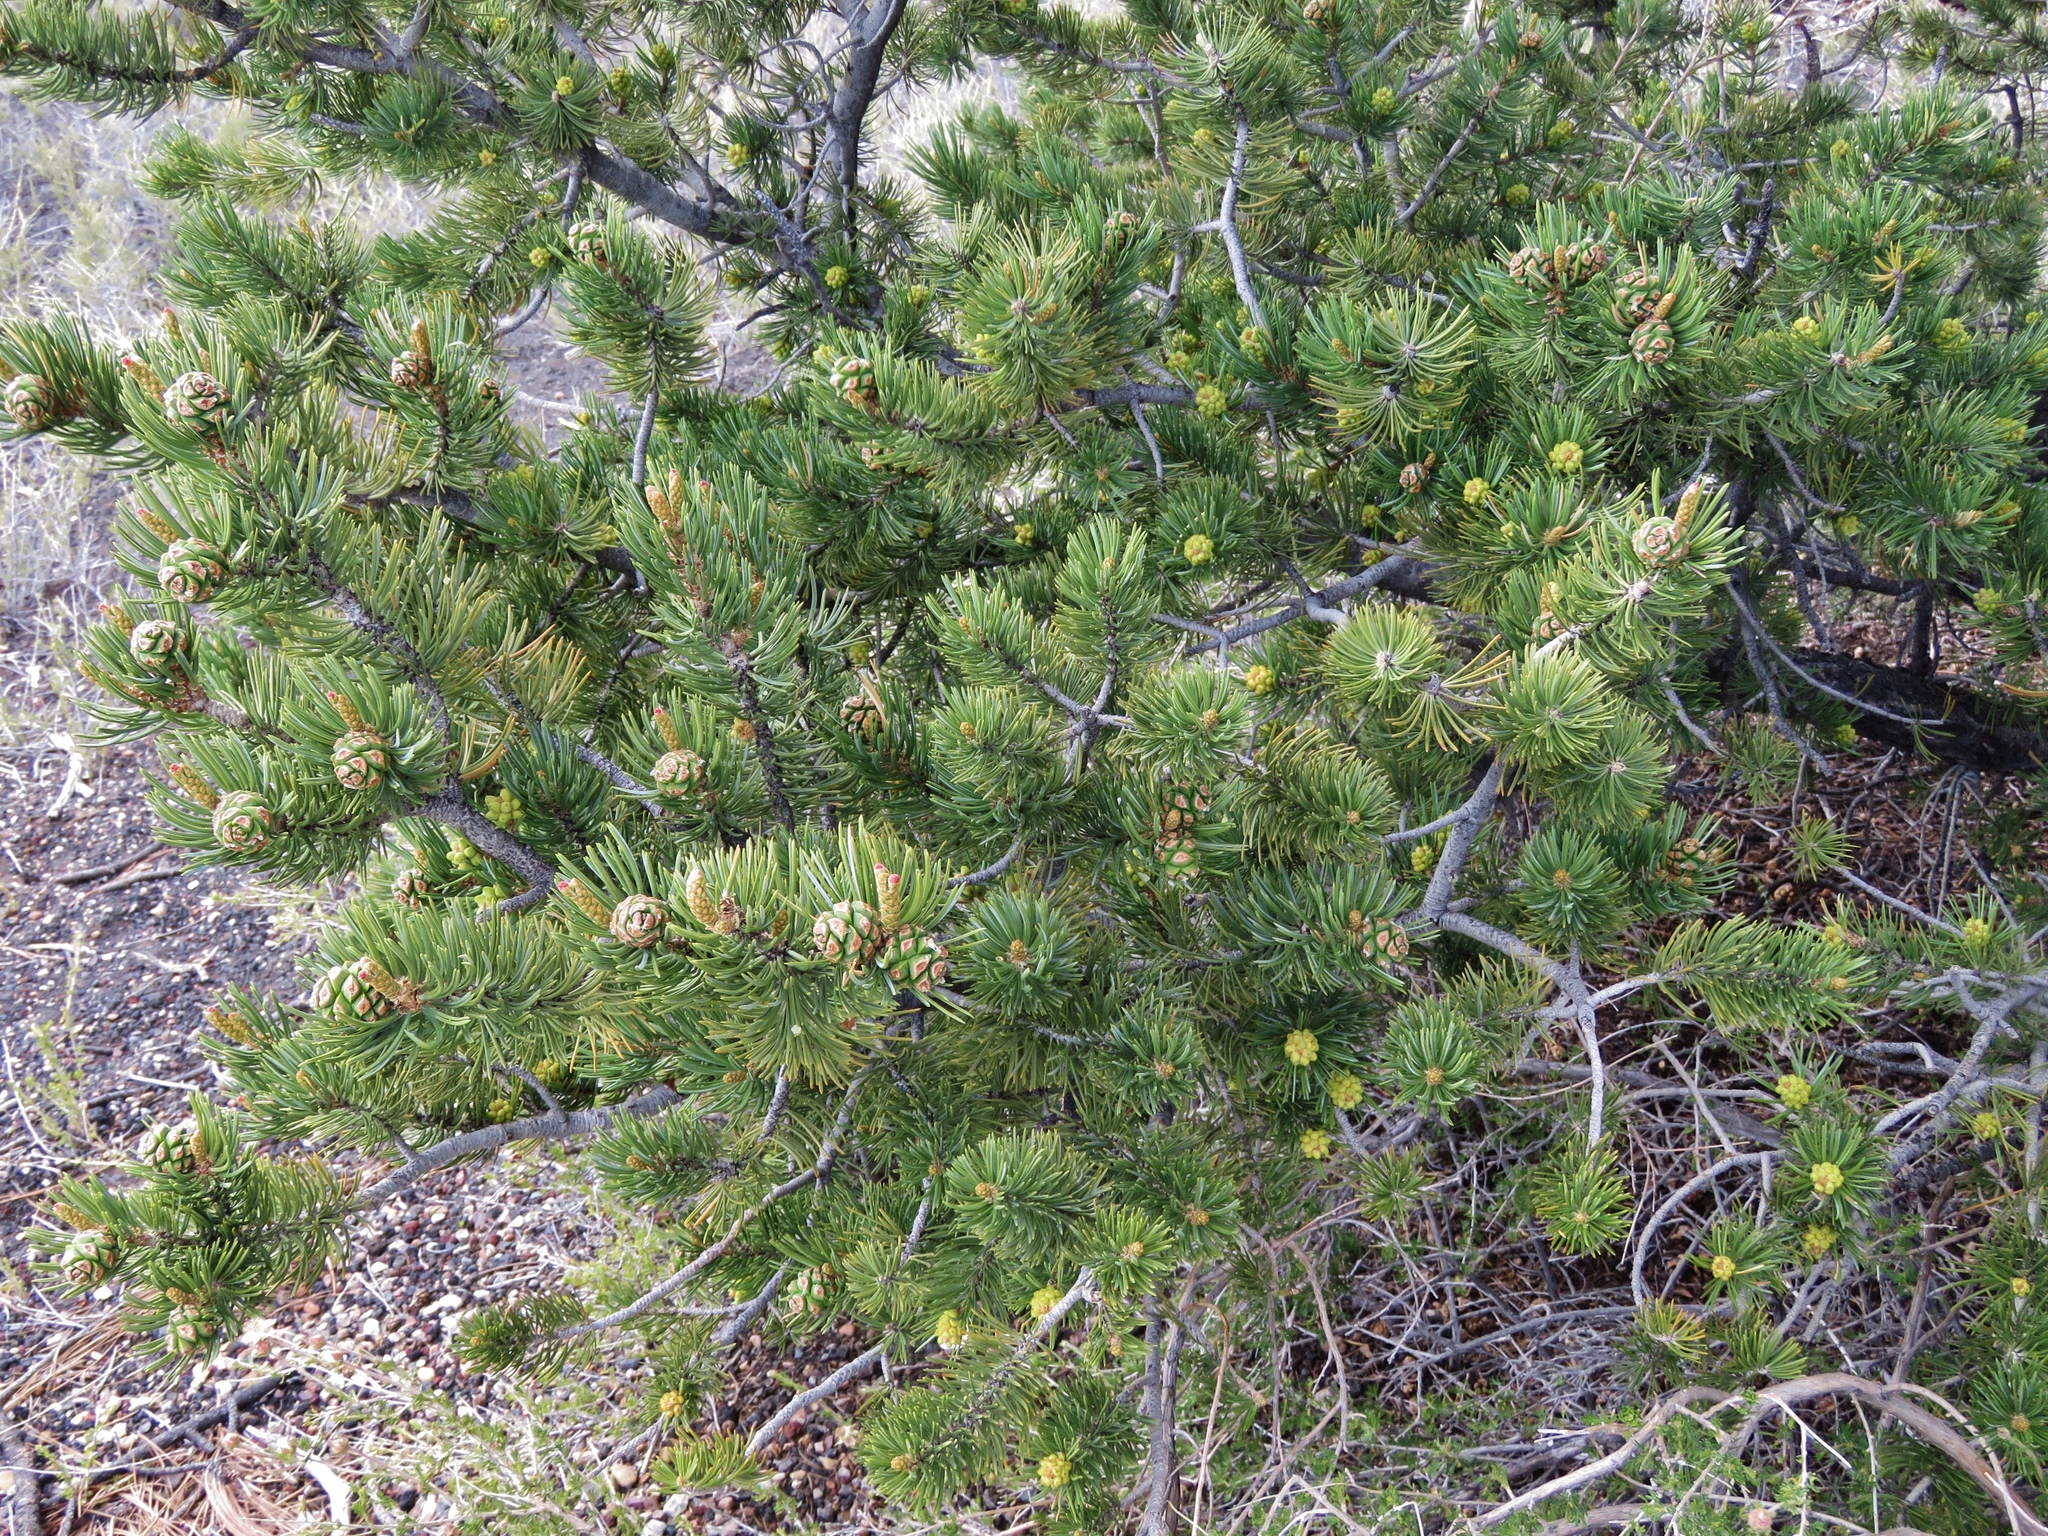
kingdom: Plantae
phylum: Tracheophyta
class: Pinopsida
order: Pinales
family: Pinaceae
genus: Pinus
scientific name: Pinus edulis
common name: Colorado pinyon
